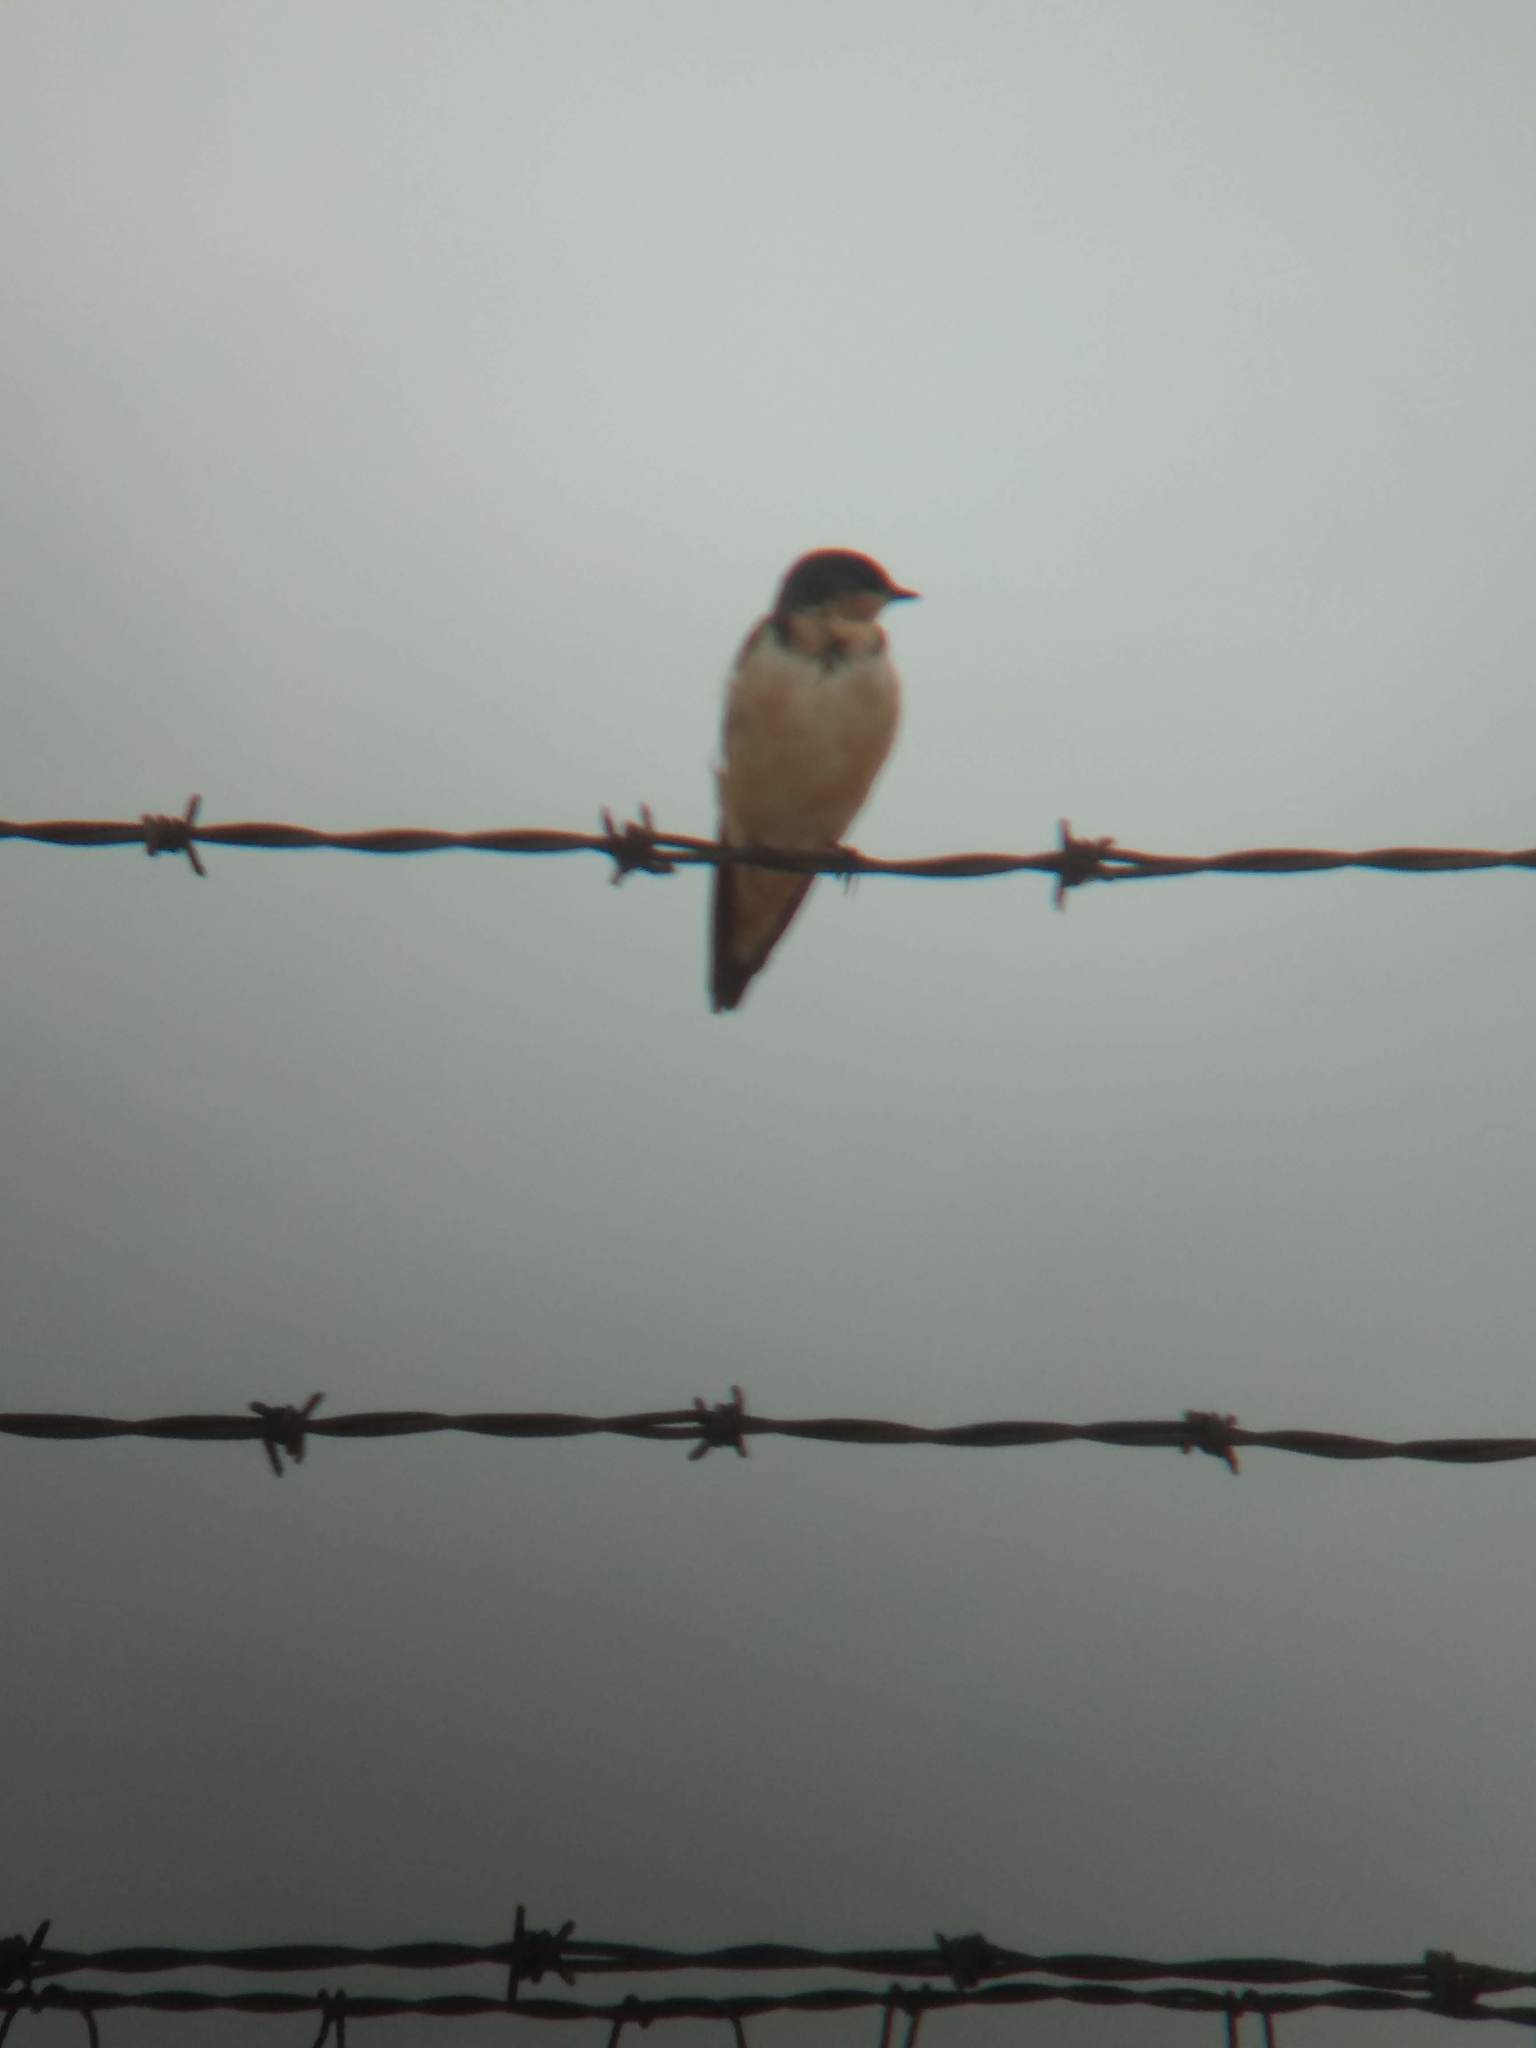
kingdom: Animalia
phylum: Chordata
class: Aves
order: Passeriformes
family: Hirundinidae
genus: Hirundo
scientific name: Hirundo rustica
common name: Barn swallow
